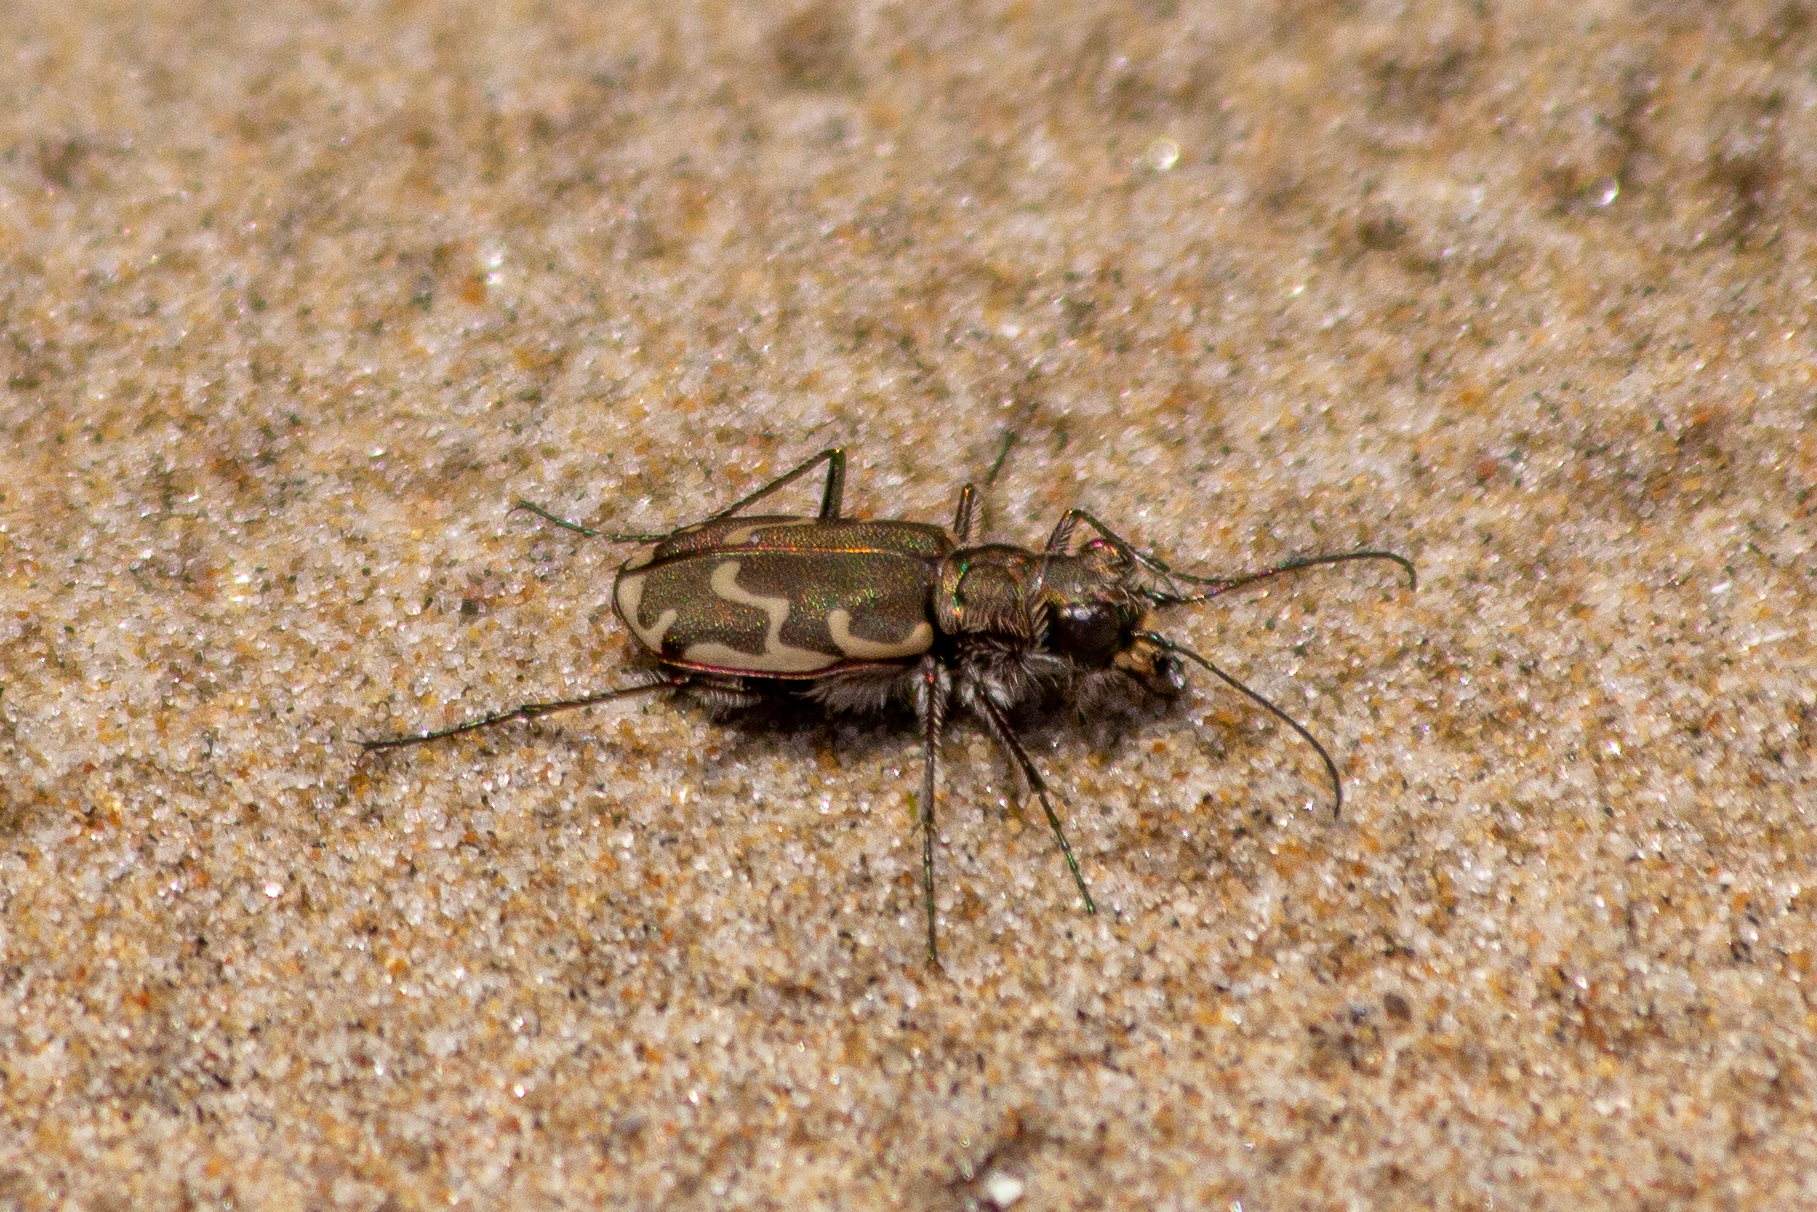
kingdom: Animalia
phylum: Arthropoda
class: Insecta
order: Coleoptera
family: Carabidae
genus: Cicindela
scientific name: Cicindela repanda
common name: Bronzed tiger beetle
